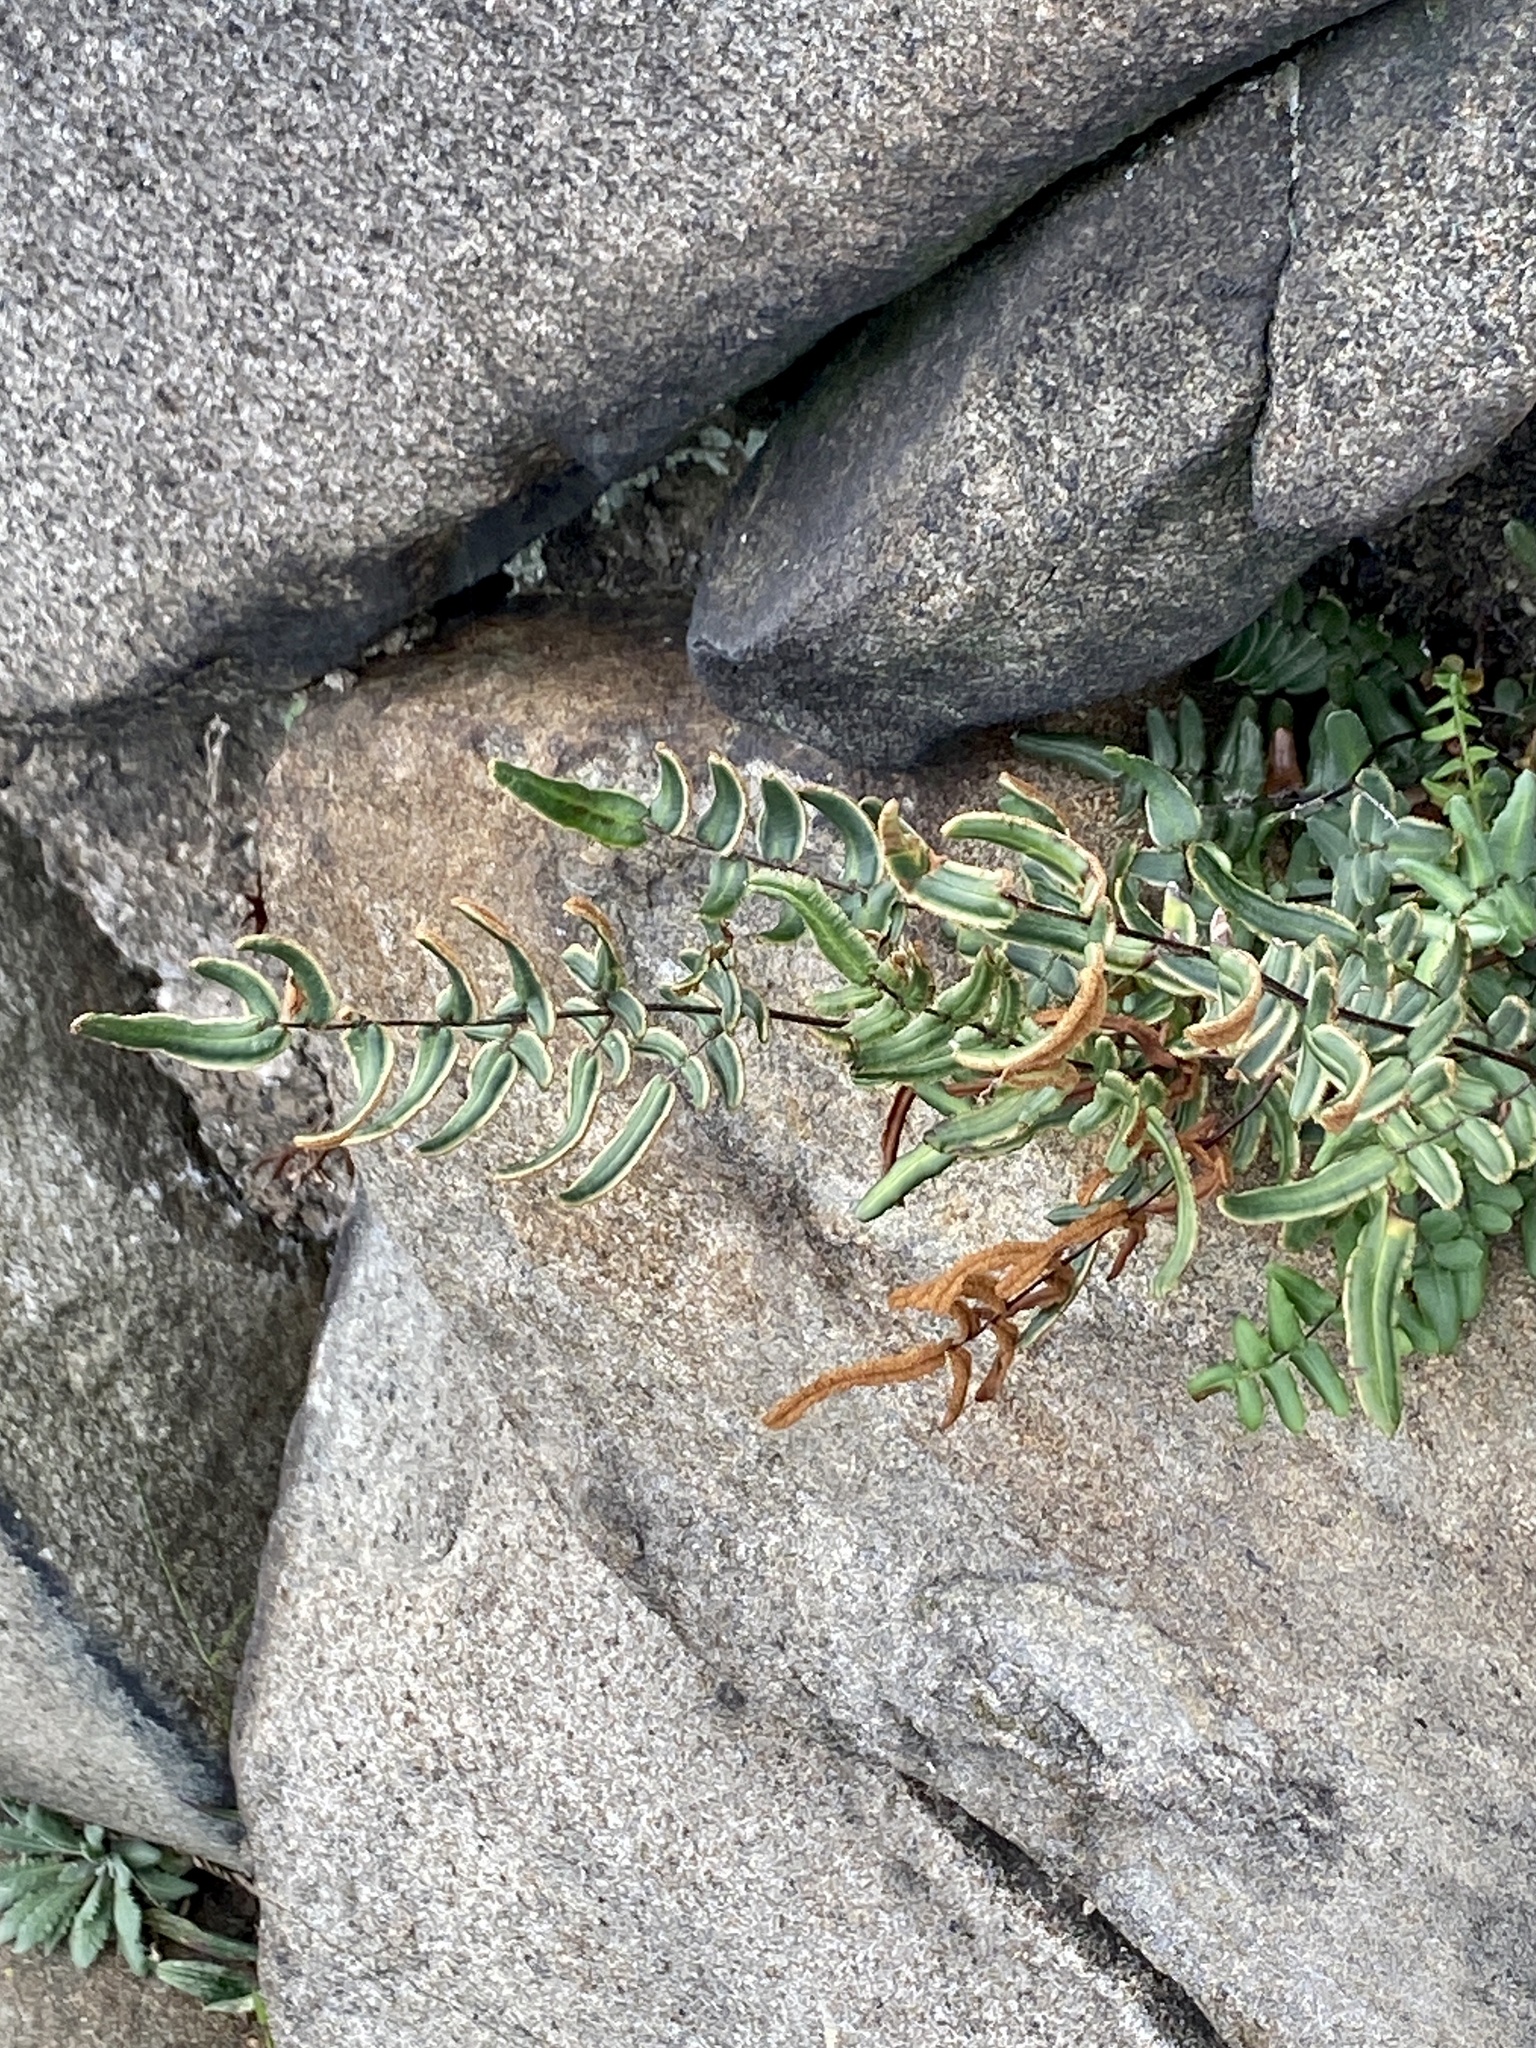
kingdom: Plantae
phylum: Tracheophyta
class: Polypodiopsida
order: Polypodiales
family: Pteridaceae
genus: Pellaea
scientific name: Pellaea atropurpurea
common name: Hairy cliffbrake
